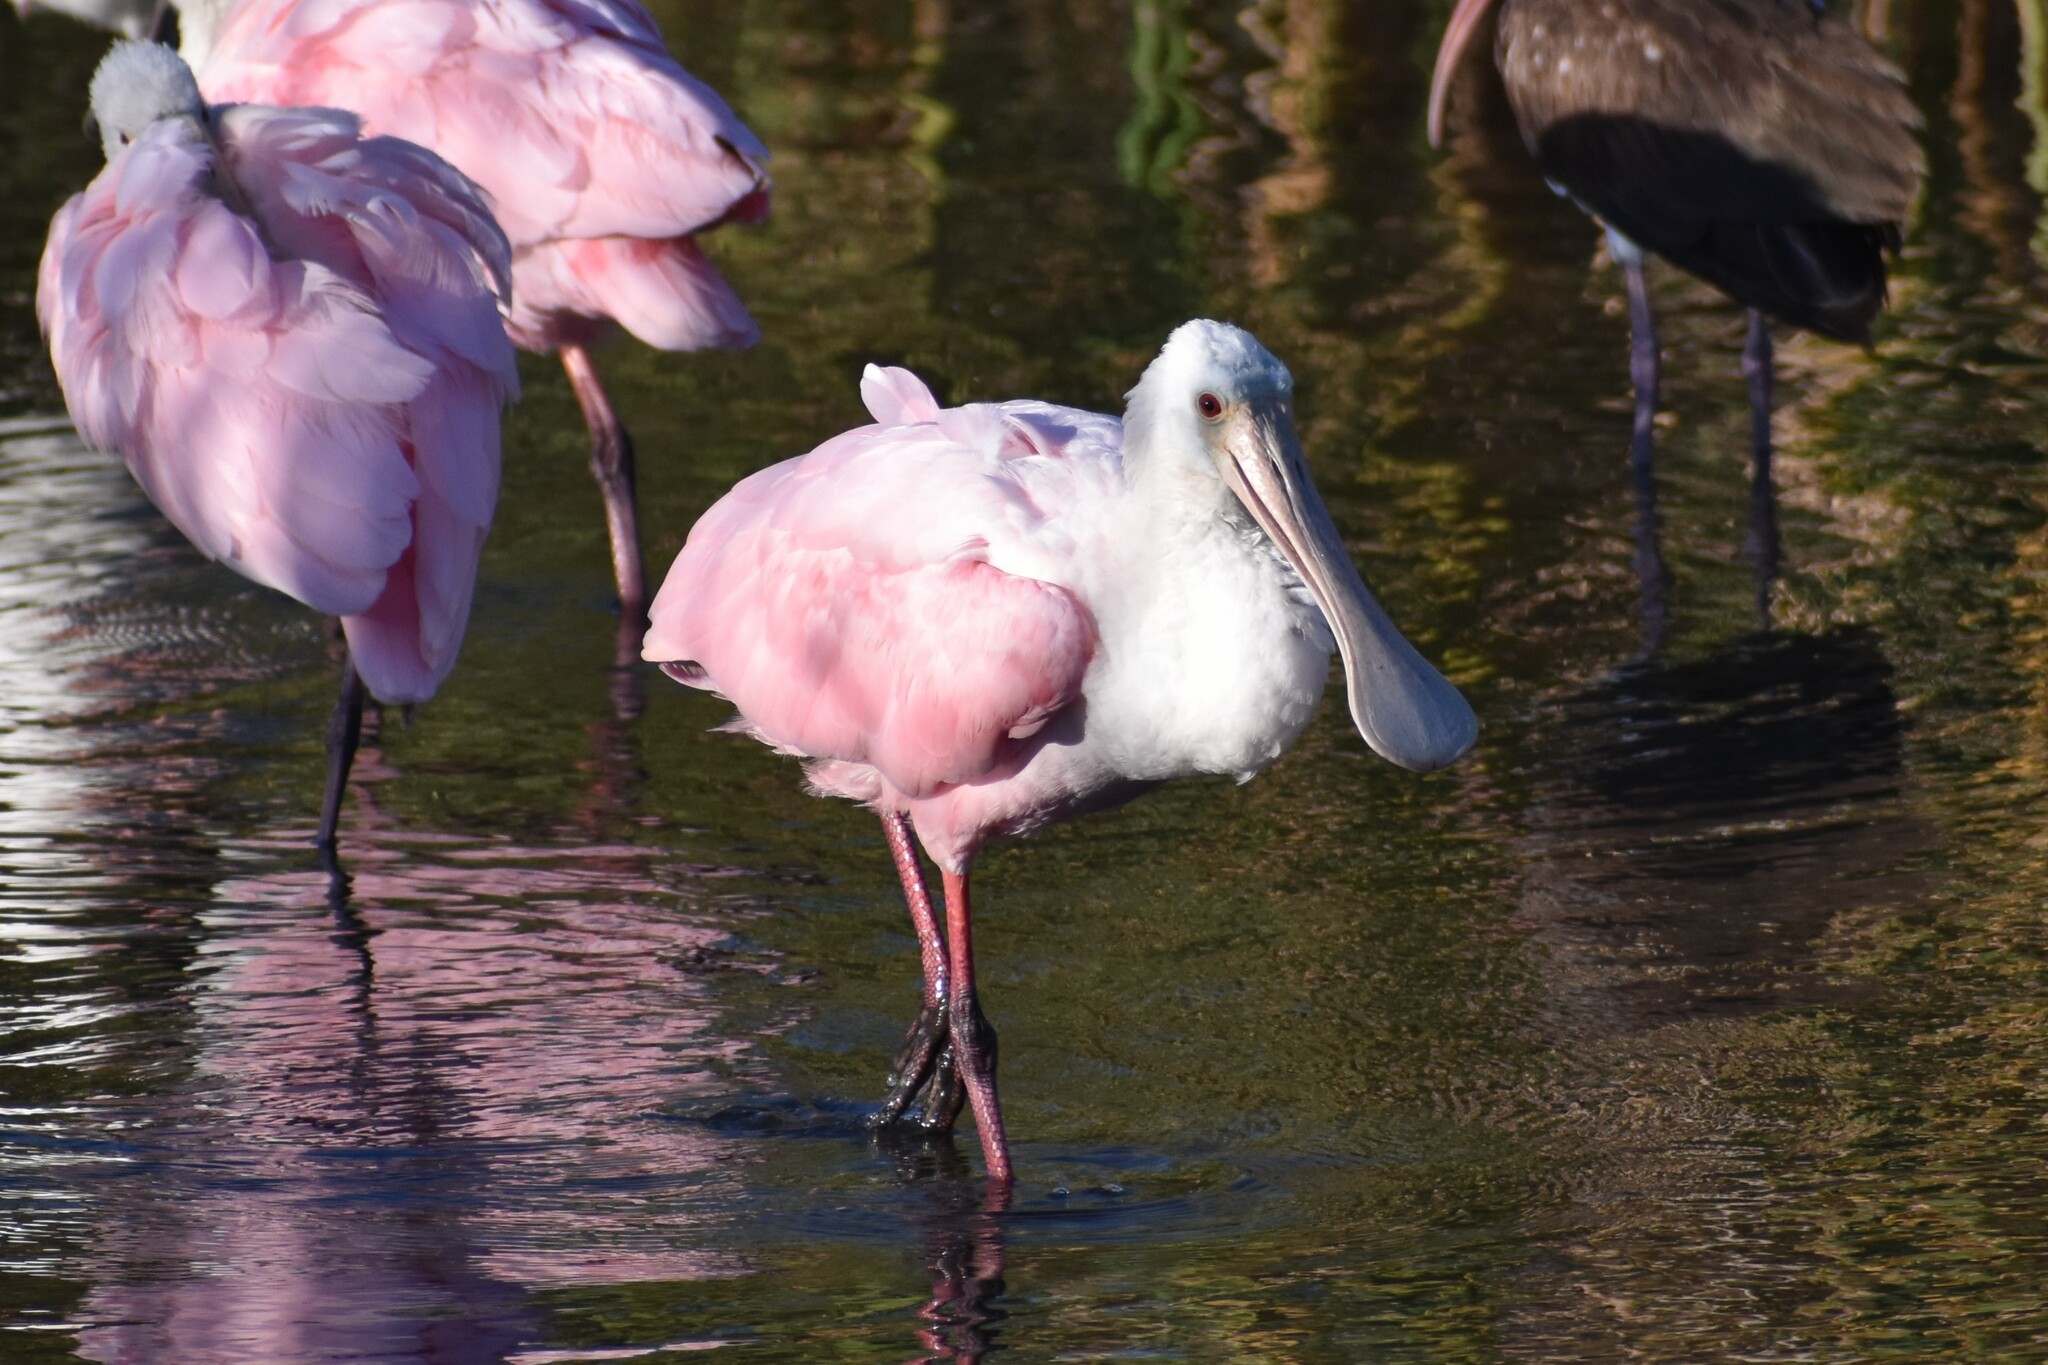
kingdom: Animalia
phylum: Chordata
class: Aves
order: Pelecaniformes
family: Threskiornithidae
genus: Platalea
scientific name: Platalea ajaja
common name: Roseate spoonbill
